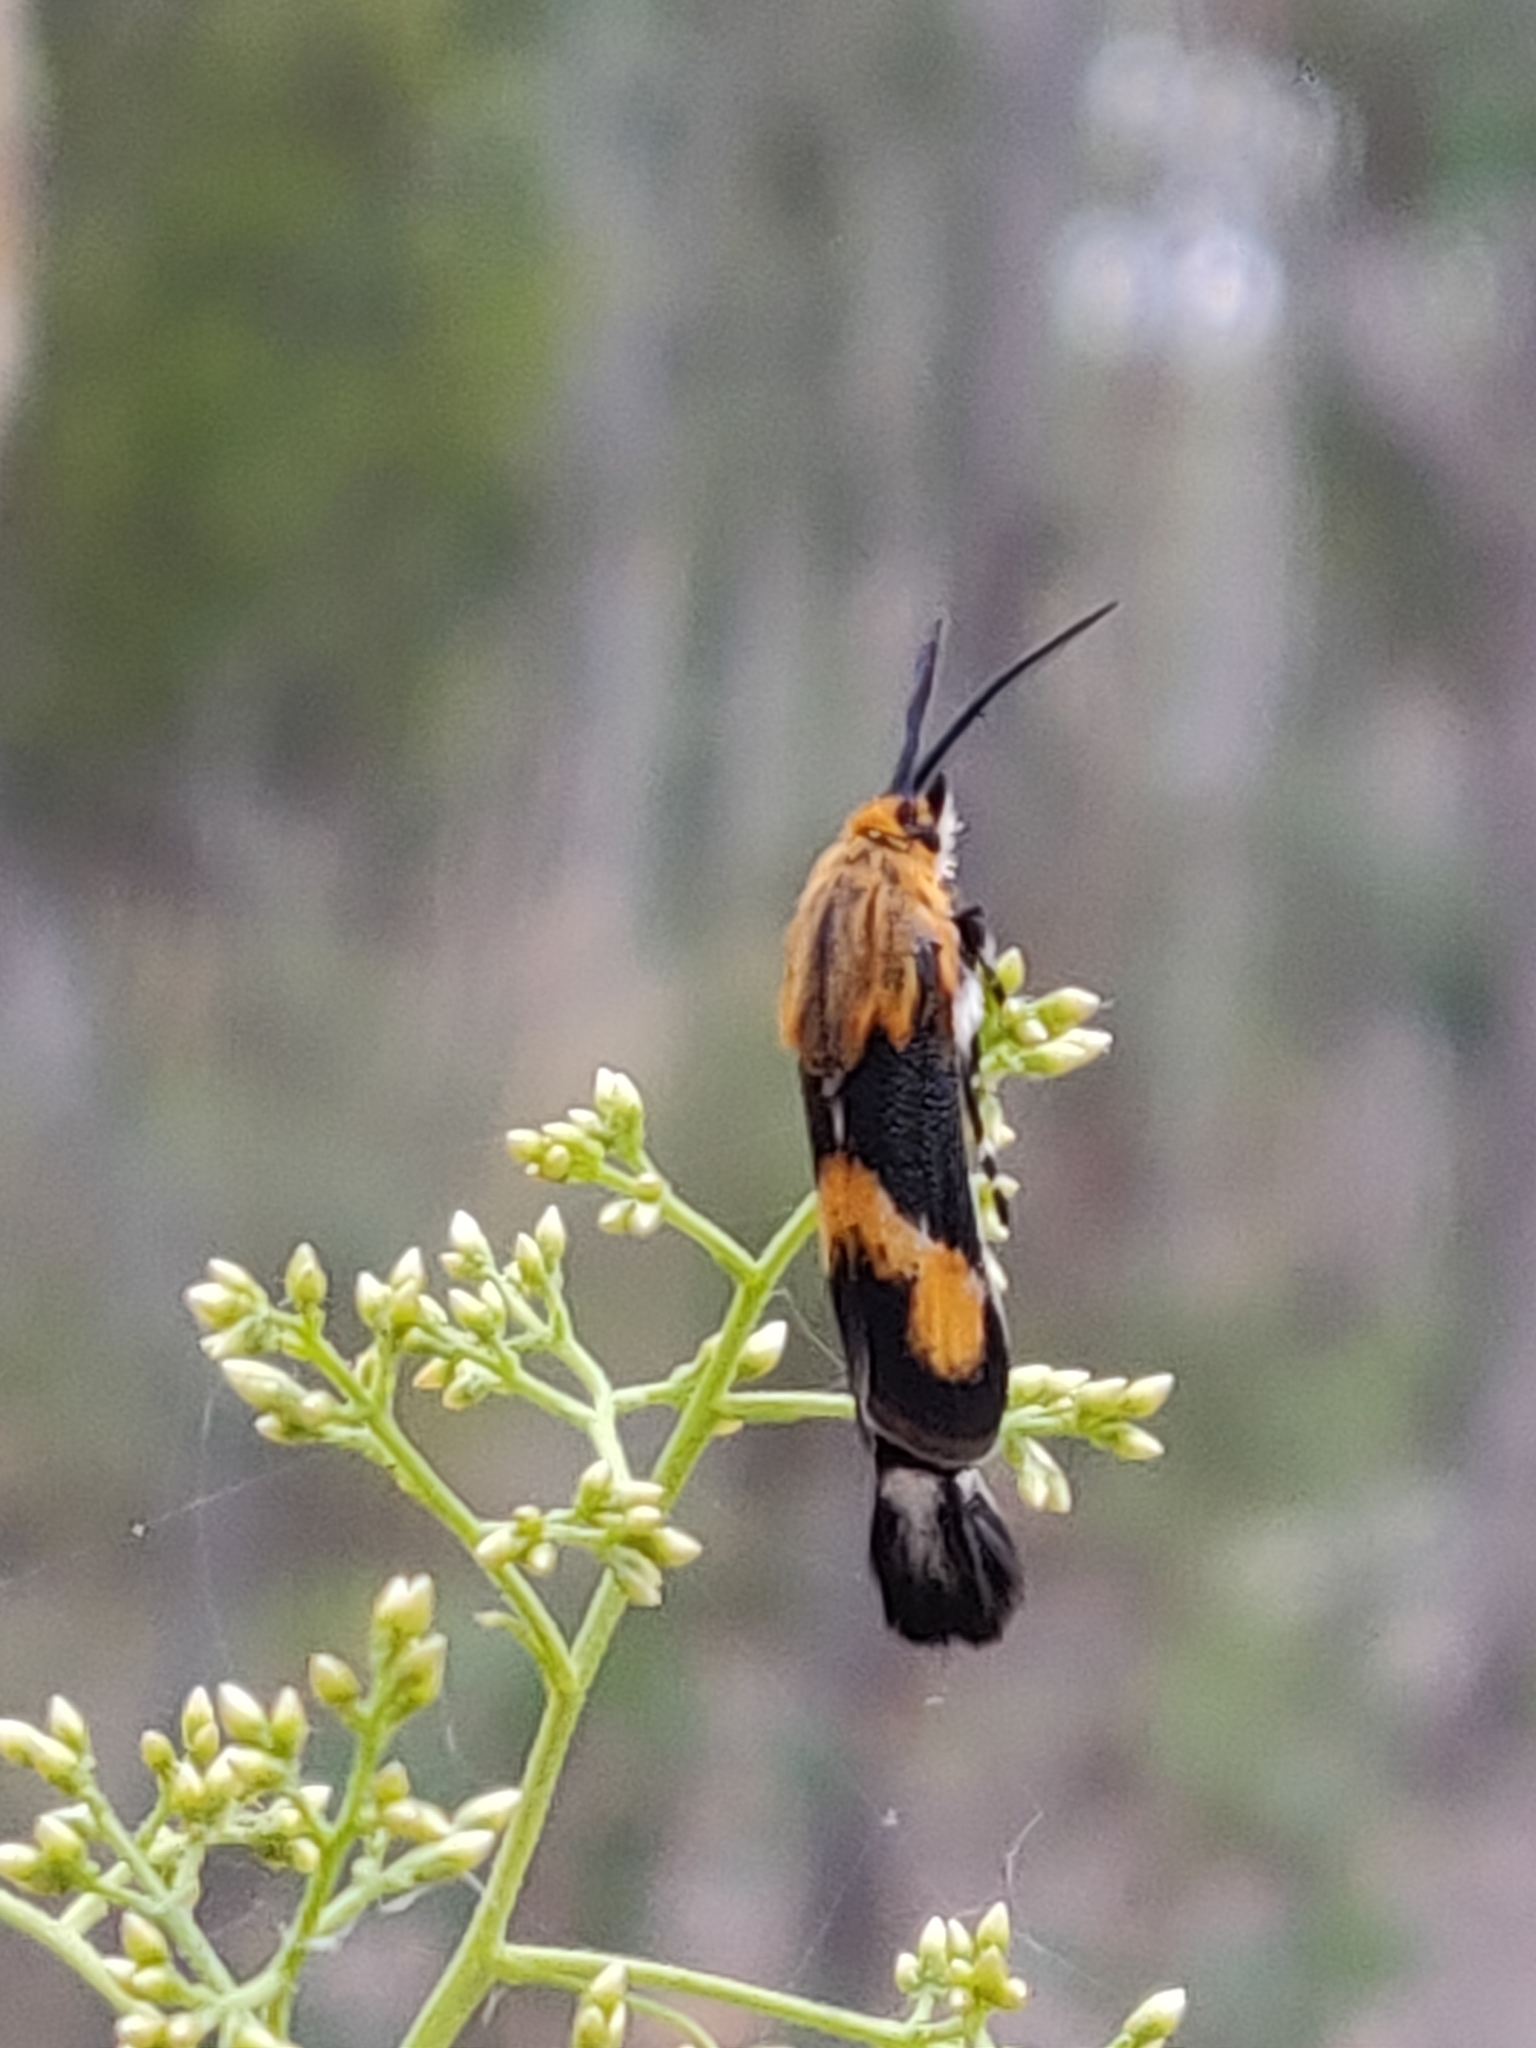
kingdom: Animalia
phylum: Arthropoda
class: Insecta
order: Lepidoptera
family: Brachodidae
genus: Miscera
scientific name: Miscera homotona
